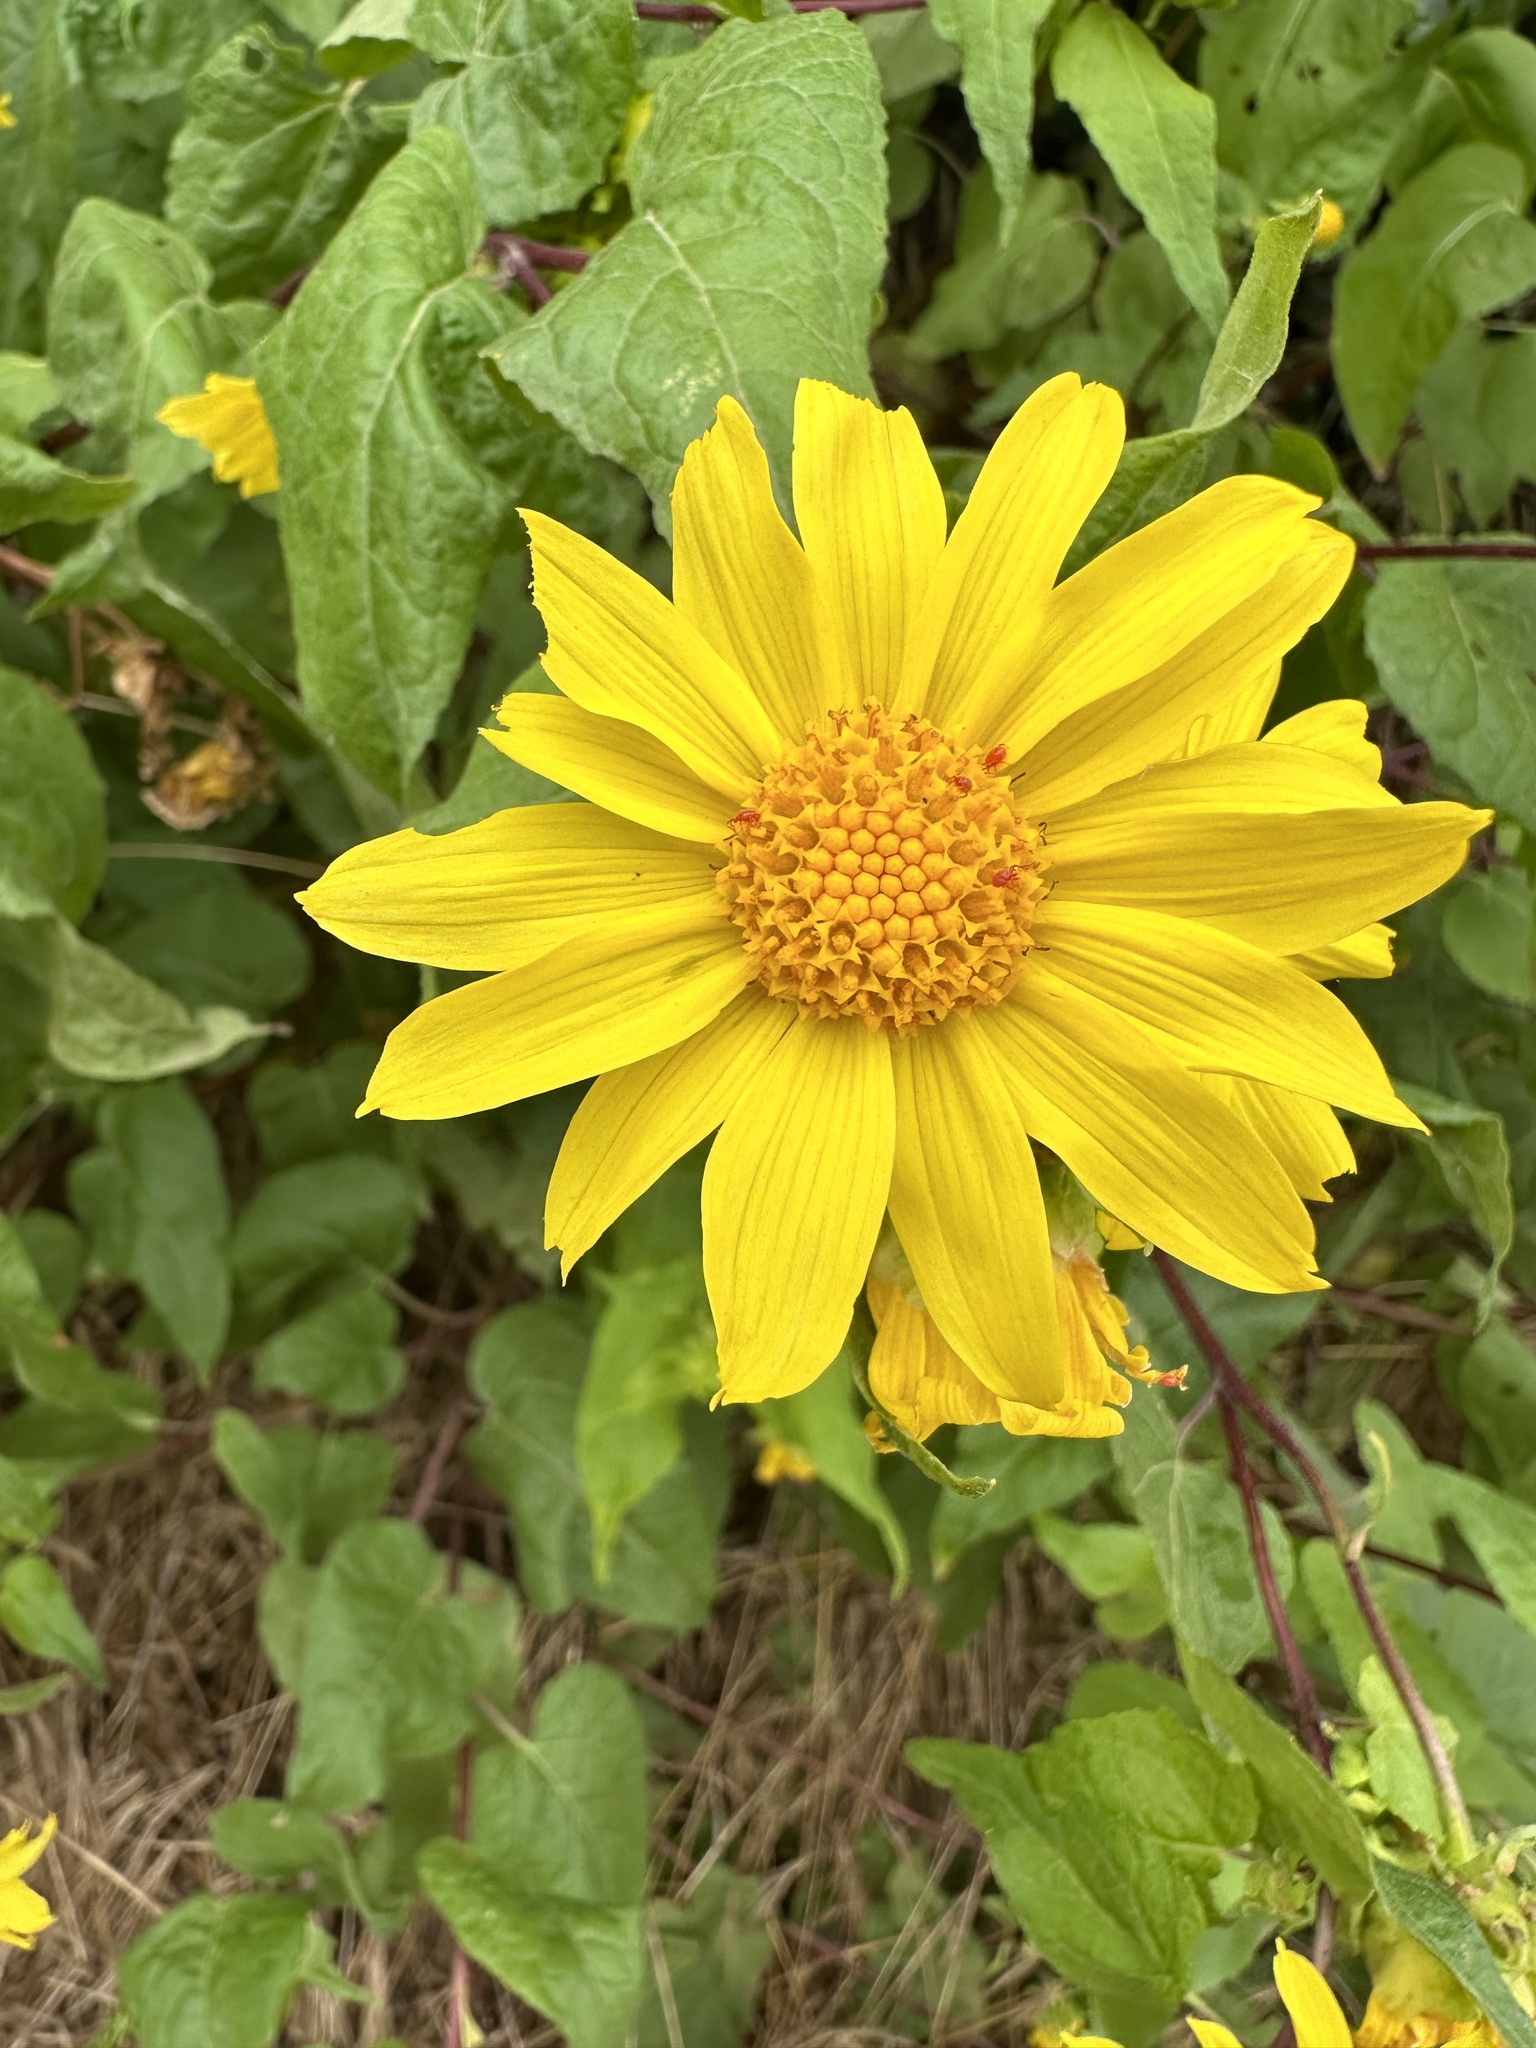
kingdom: Plantae
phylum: Tracheophyta
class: Magnoliopsida
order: Asterales
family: Asteraceae
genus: Venegasia
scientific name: Venegasia carpesioides
